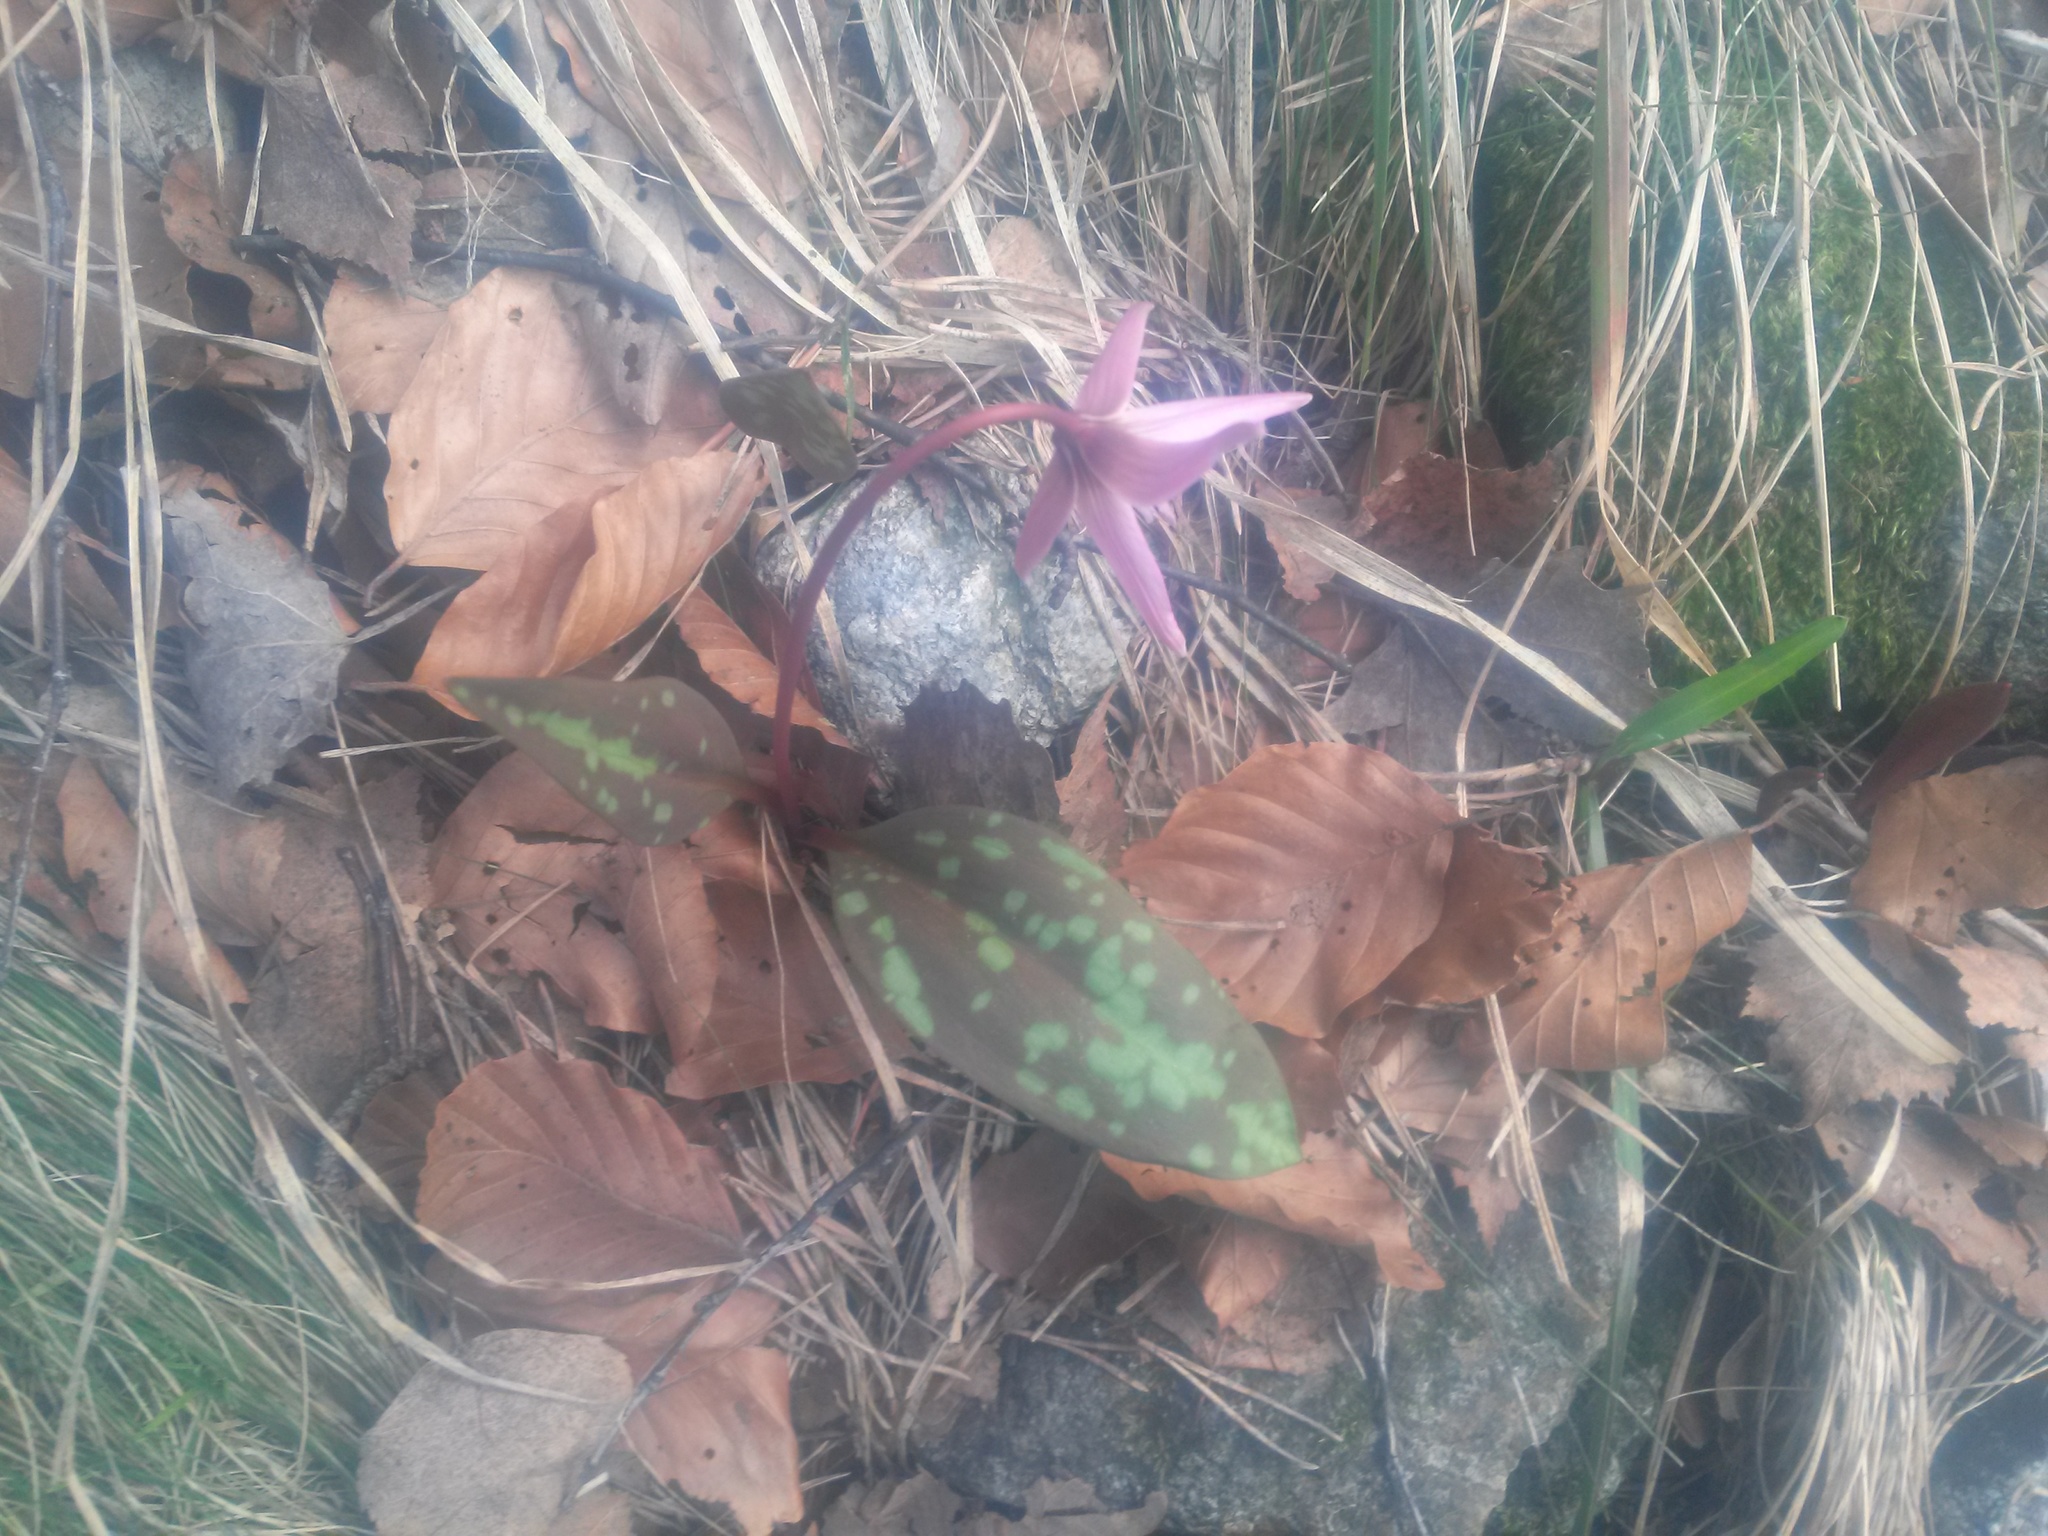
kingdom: Plantae
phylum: Tracheophyta
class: Liliopsida
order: Liliales
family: Liliaceae
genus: Erythronium
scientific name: Erythronium dens-canis
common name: Dog's-tooth-violet
